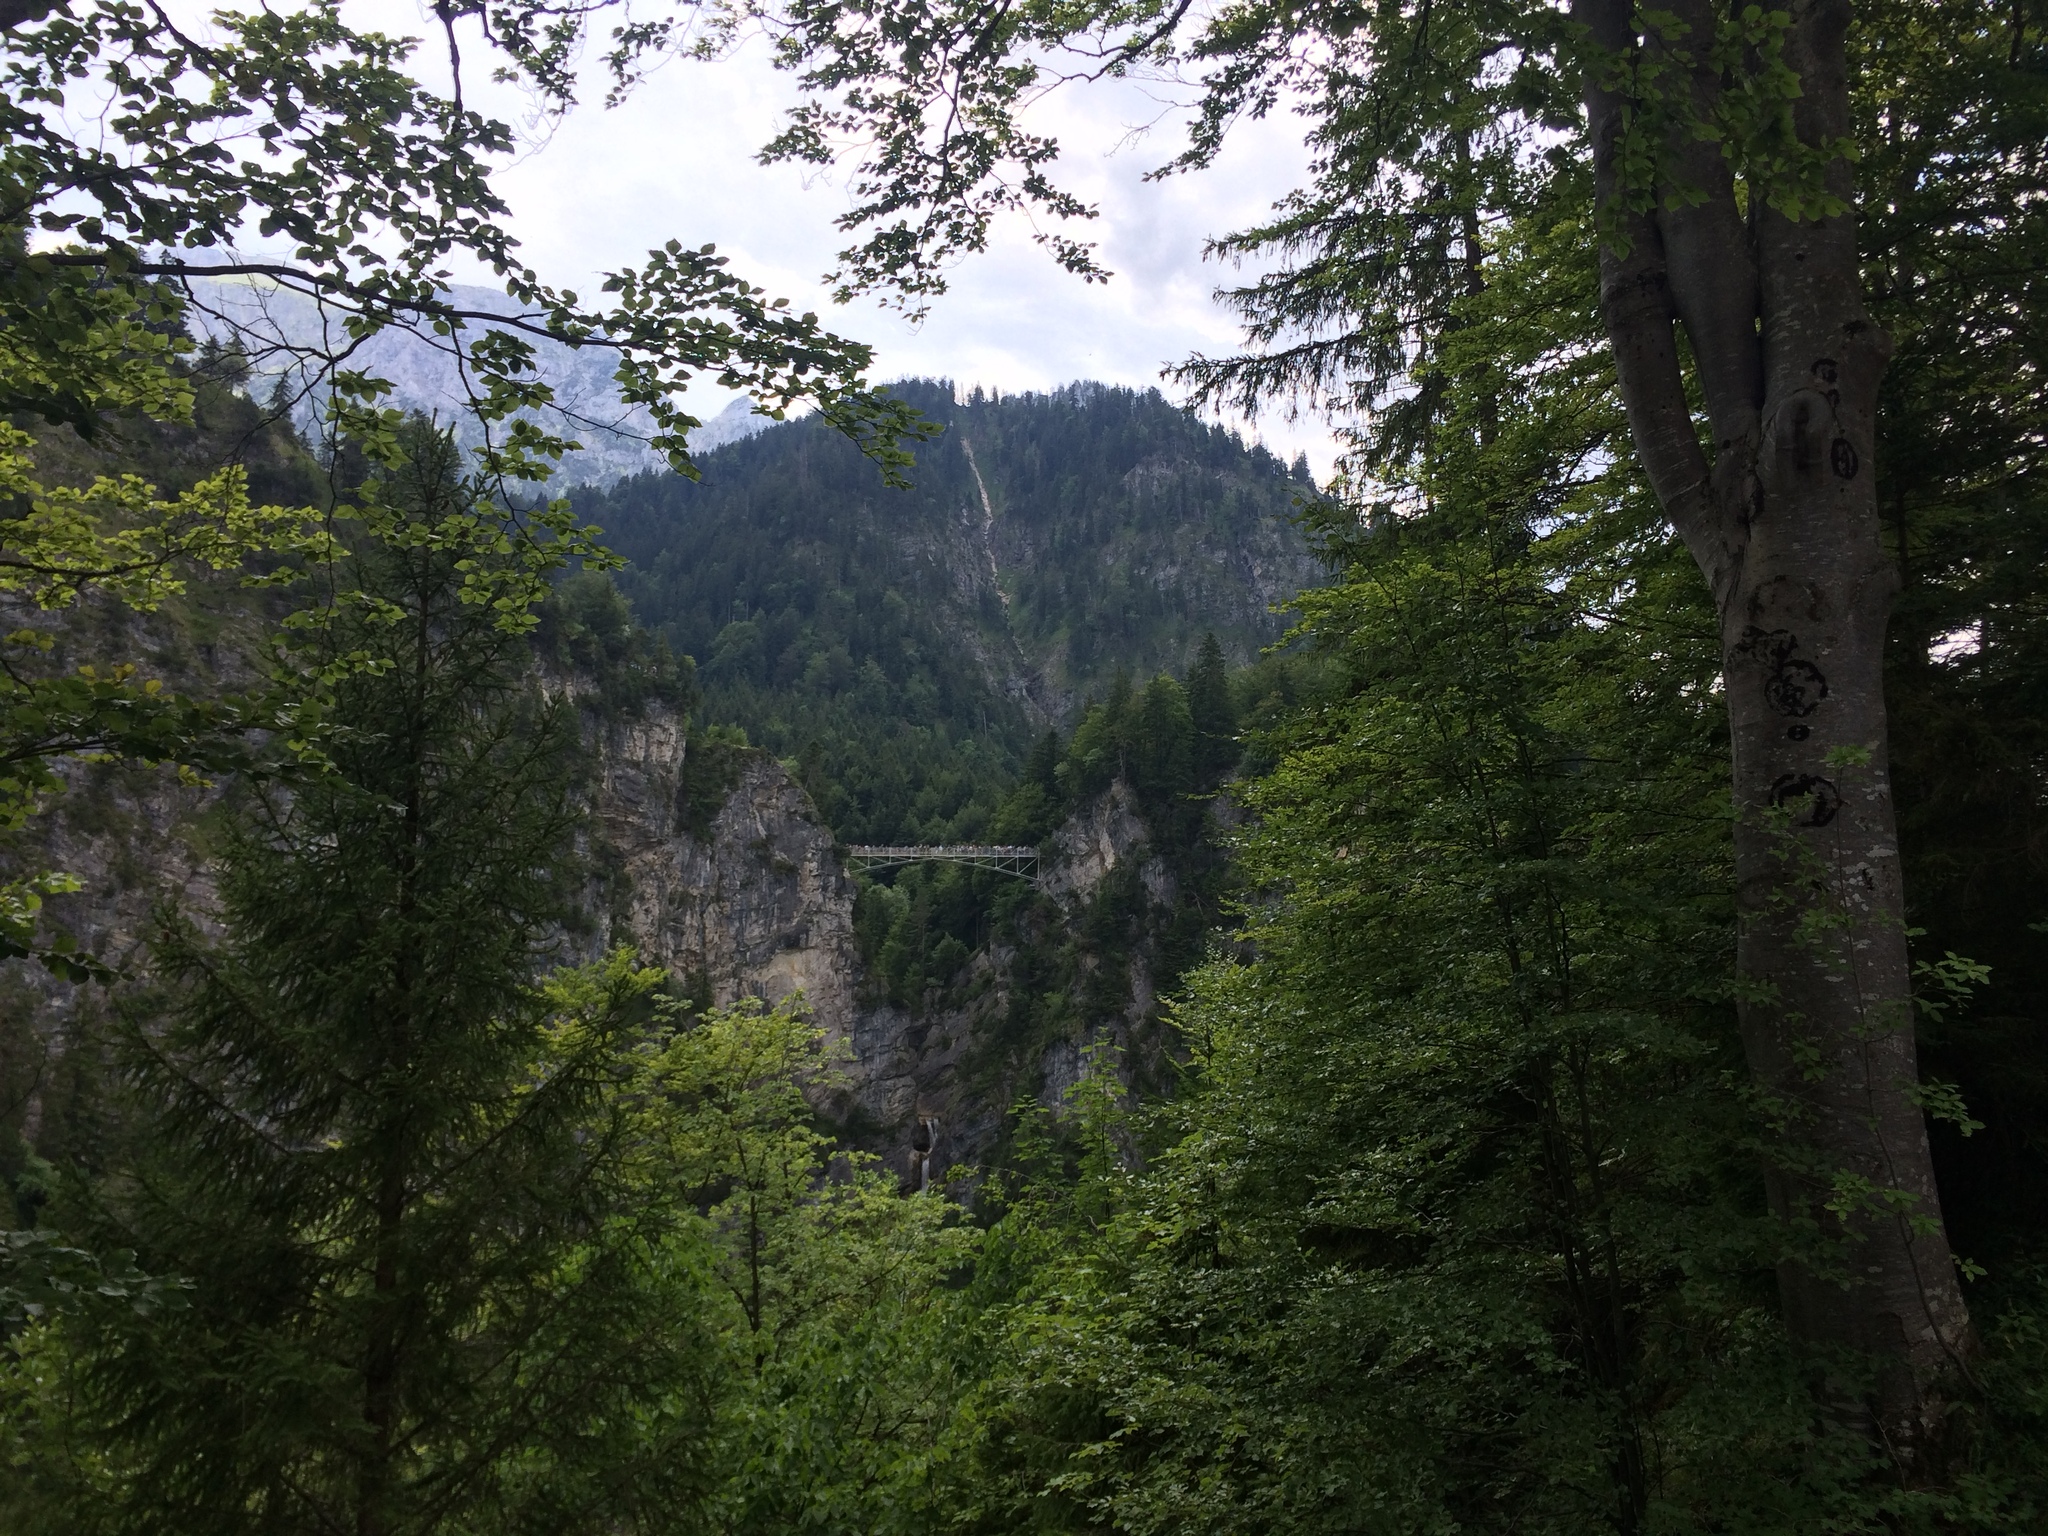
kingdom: Plantae
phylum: Tracheophyta
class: Magnoliopsida
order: Fagales
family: Fagaceae
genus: Fagus
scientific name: Fagus sylvatica
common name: Beech
